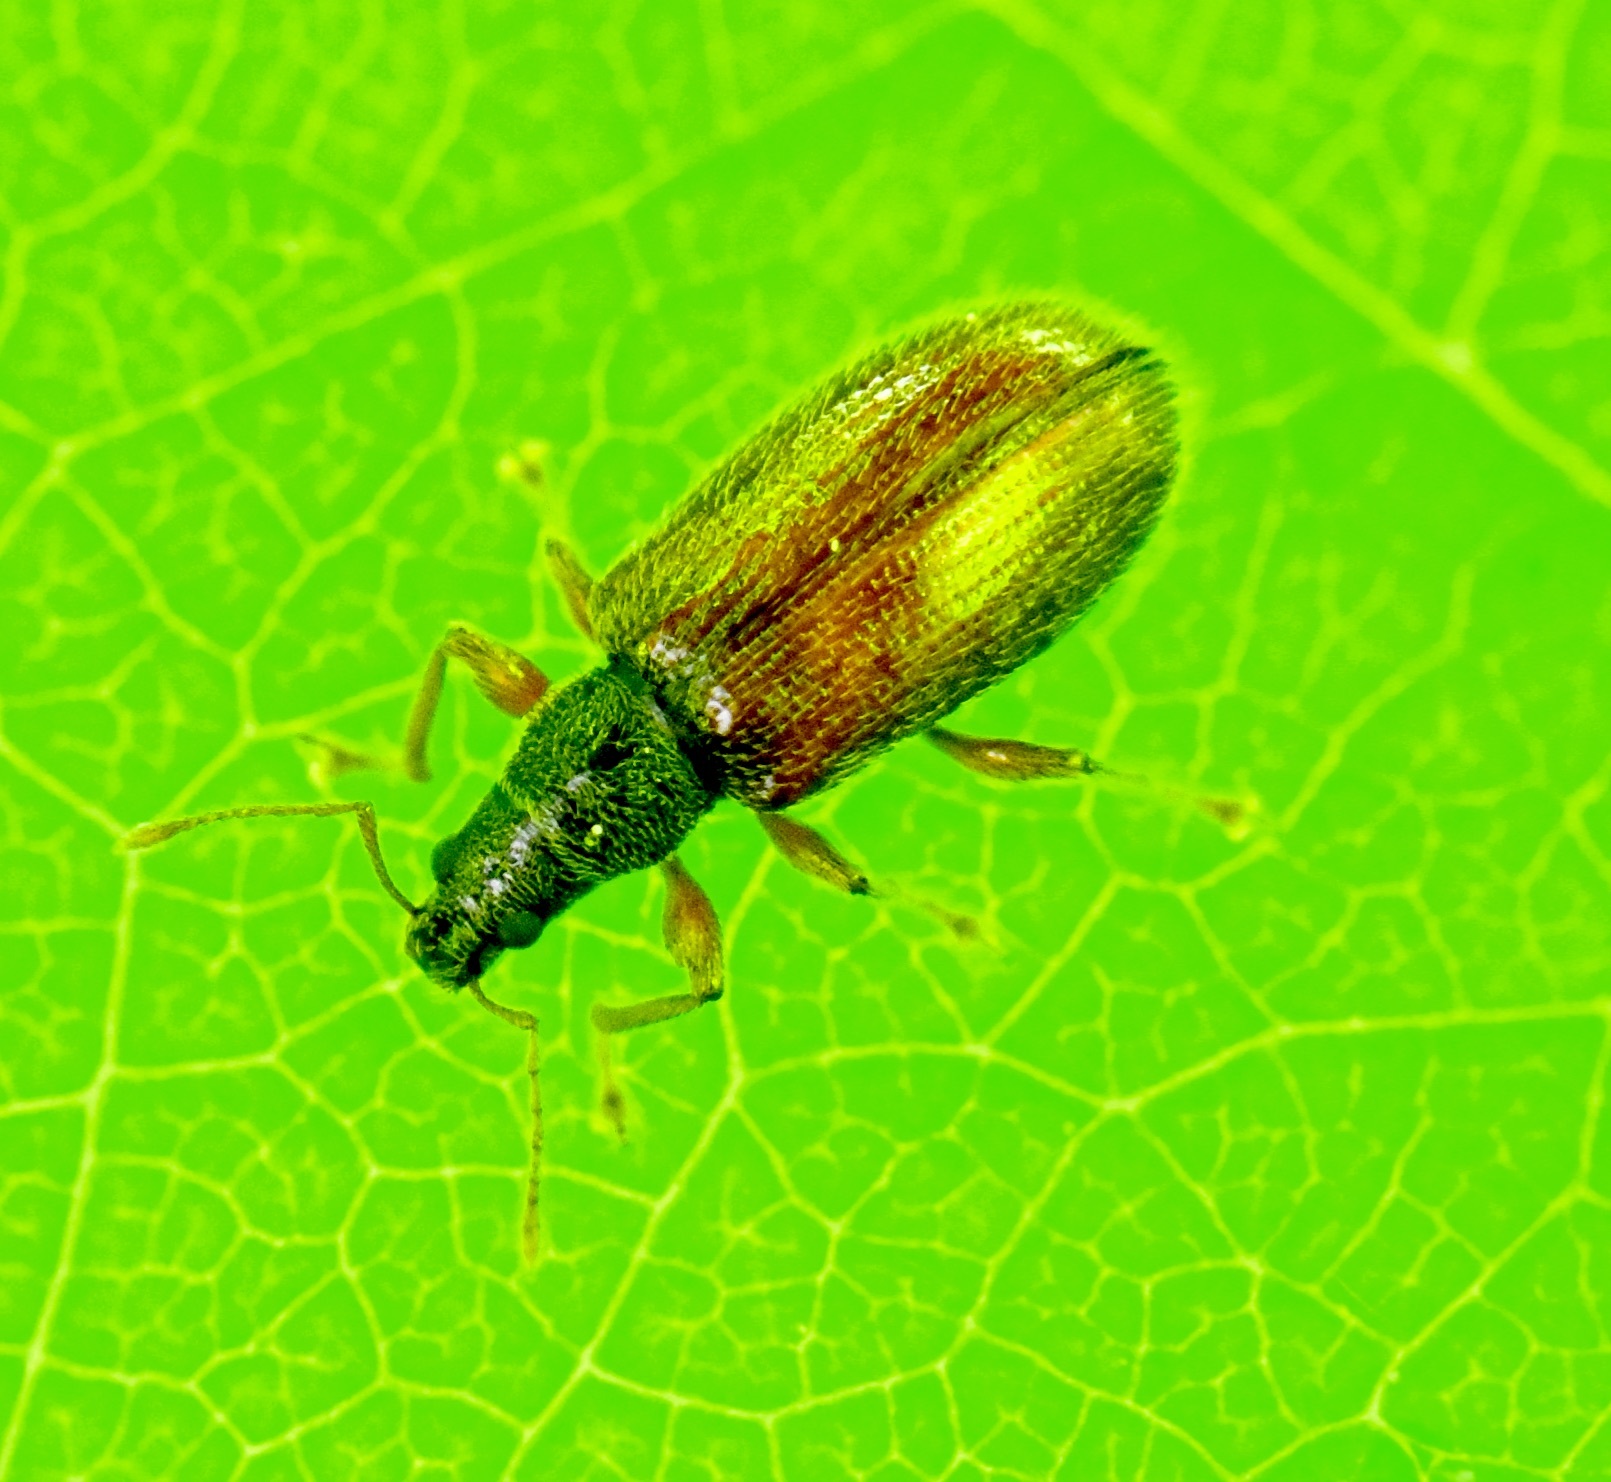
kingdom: Animalia
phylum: Arthropoda
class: Insecta
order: Coleoptera
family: Curculionidae
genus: Phyllobius
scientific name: Phyllobius oblongus
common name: Brown leaf weevil
